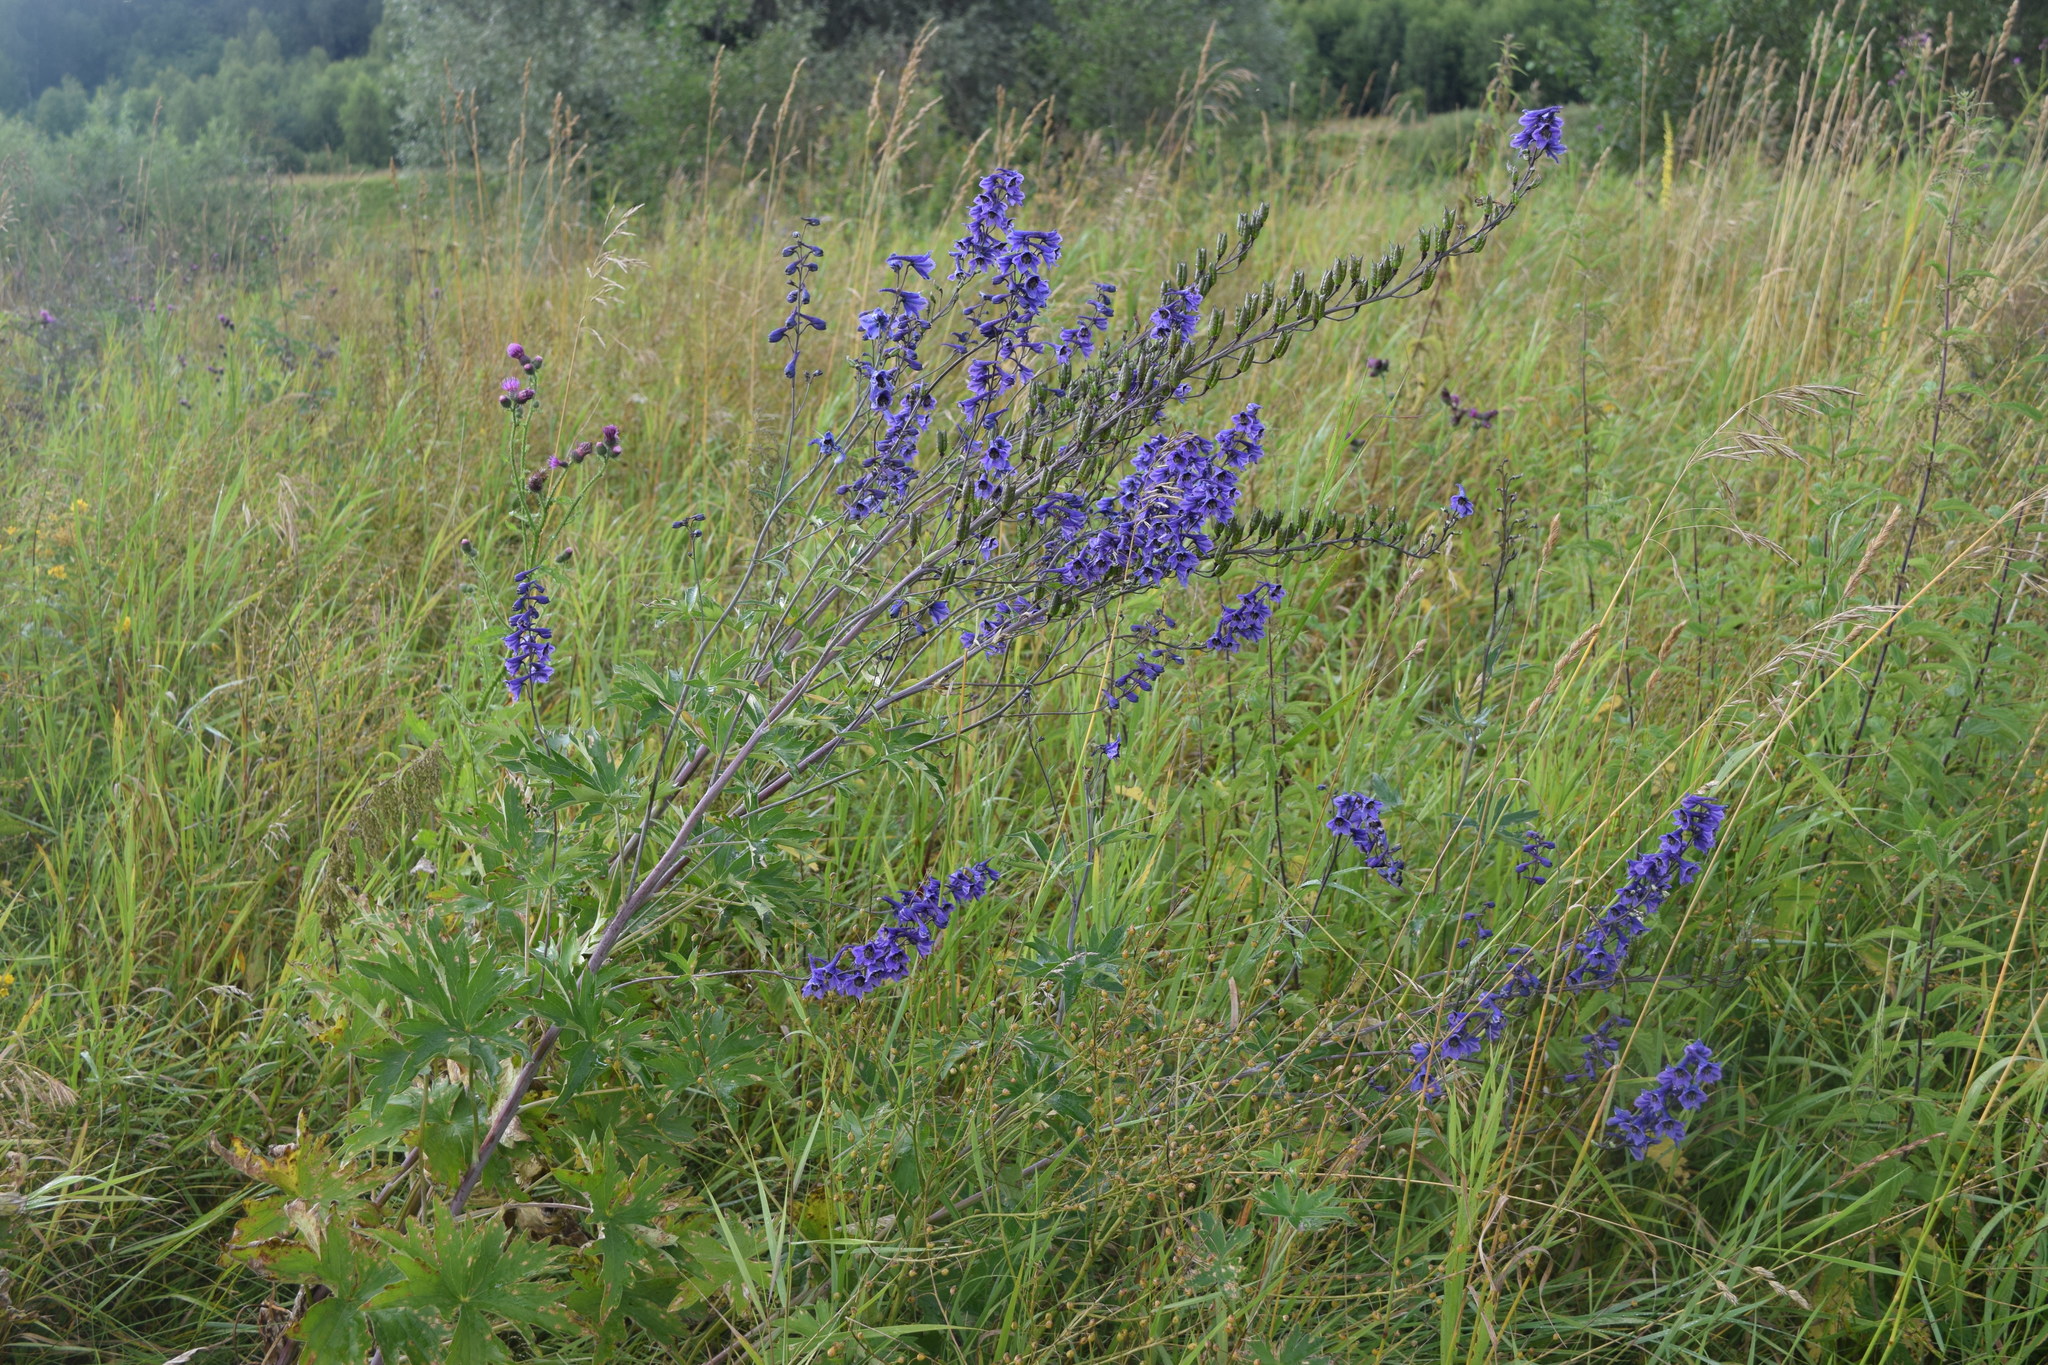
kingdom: Plantae
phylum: Tracheophyta
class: Magnoliopsida
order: Ranunculales
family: Ranunculaceae
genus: Delphinium
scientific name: Delphinium elatum
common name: Candle larkspur
